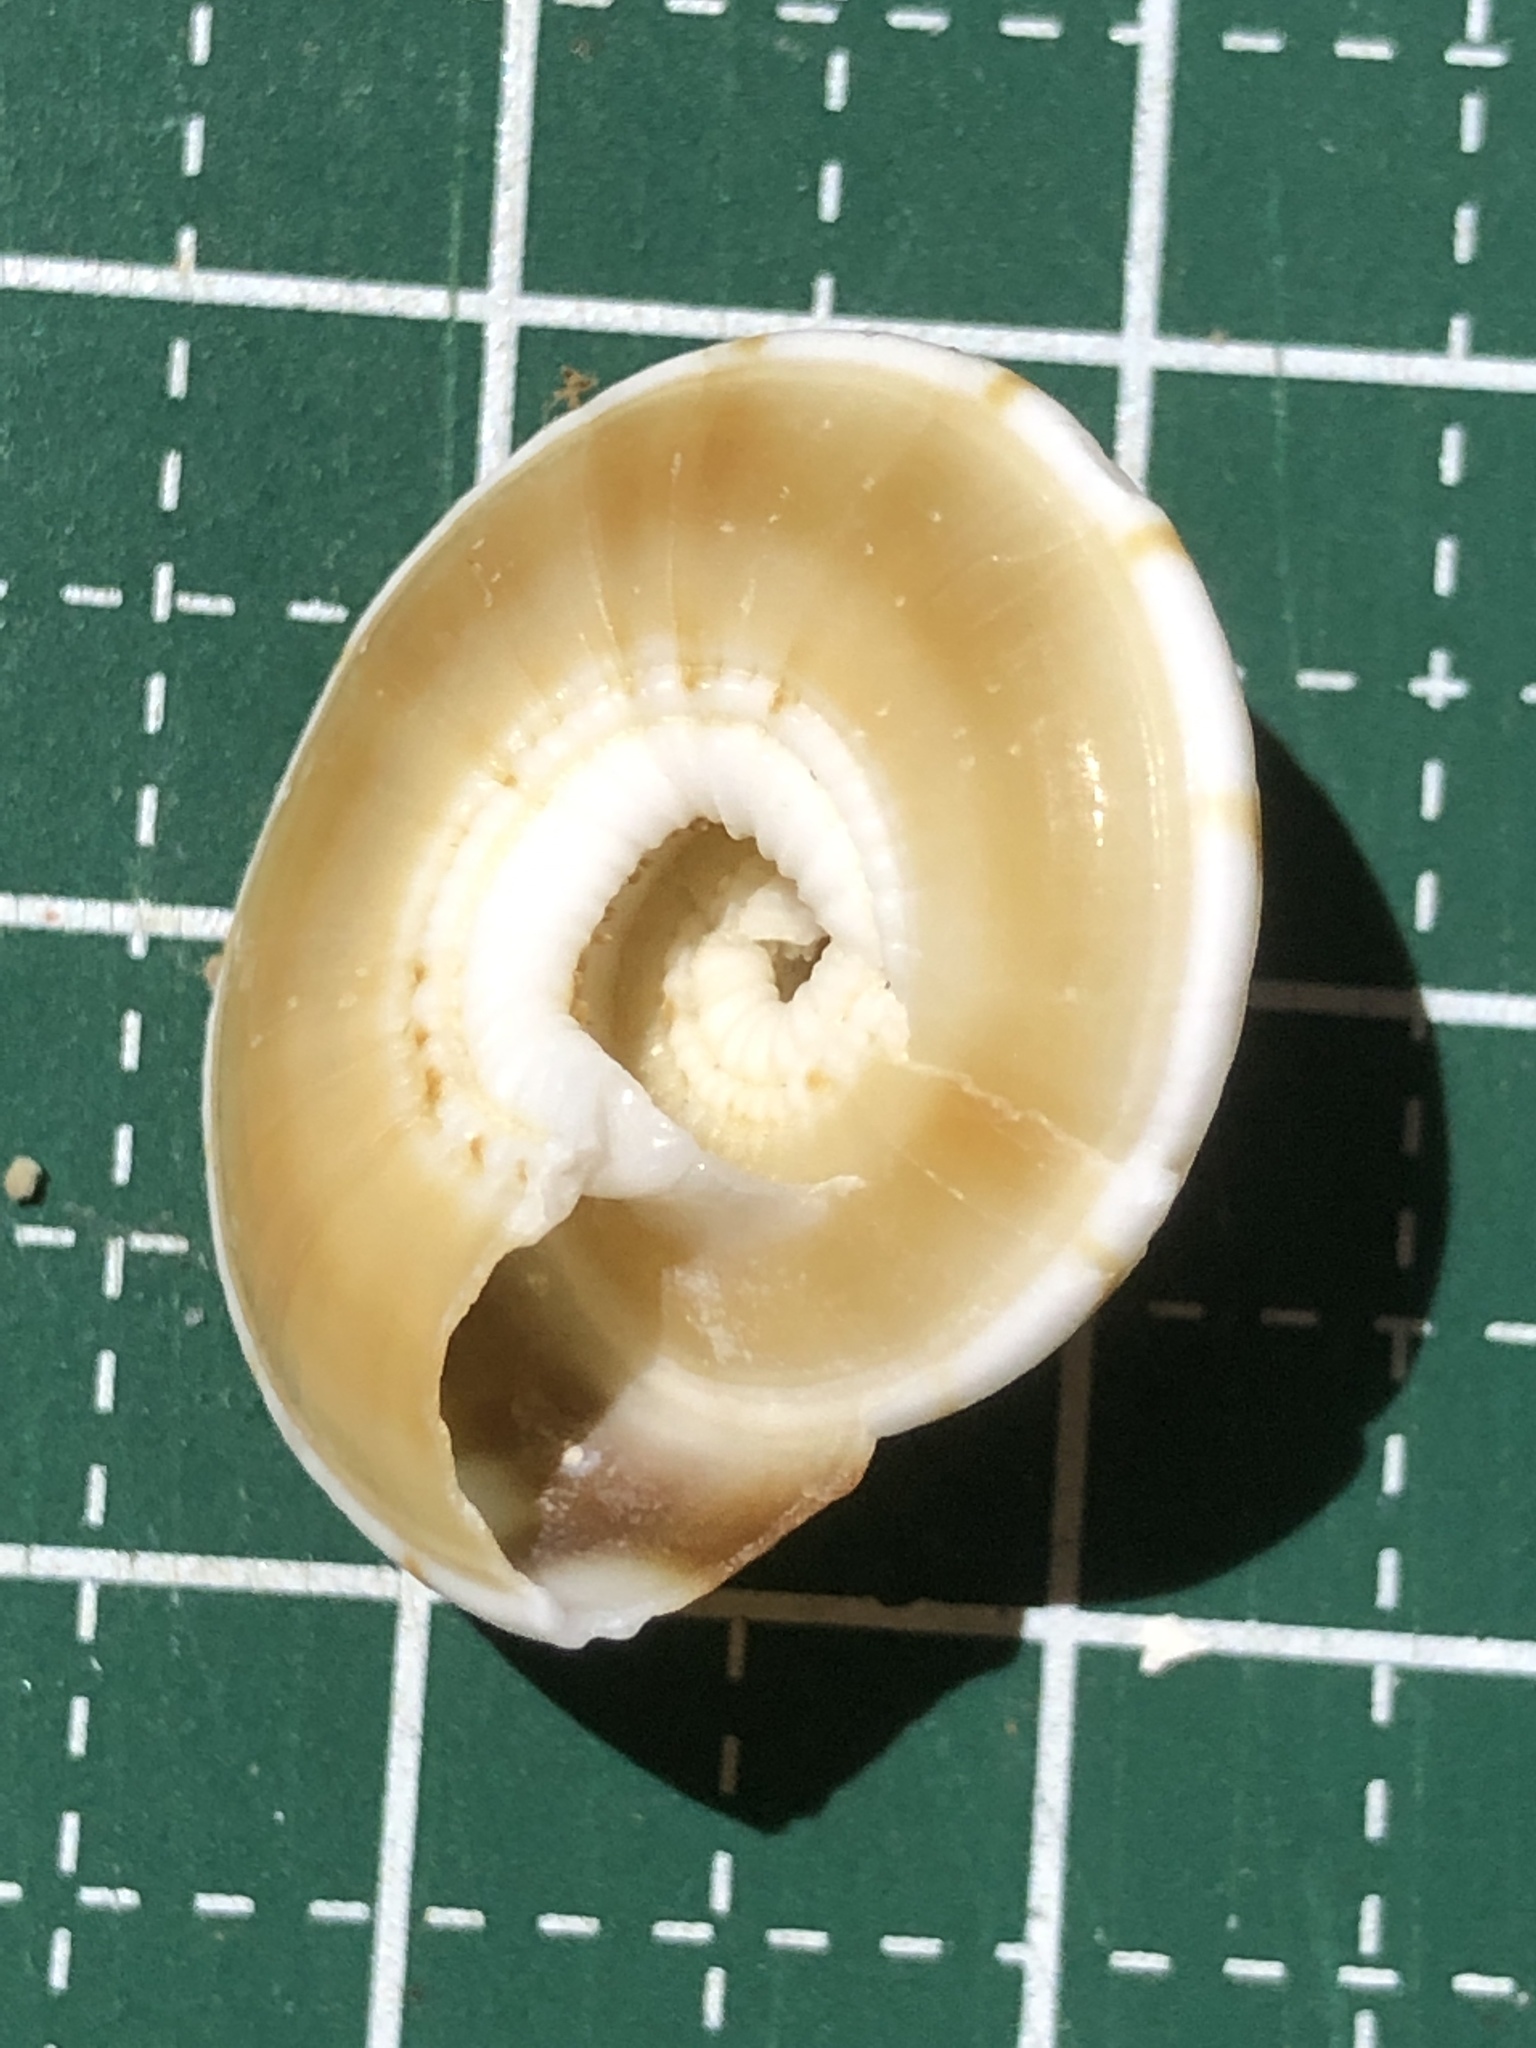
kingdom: Animalia
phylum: Mollusca
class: Gastropoda
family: Architectonicidae
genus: Psilaxis
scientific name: Psilaxis radiatus
